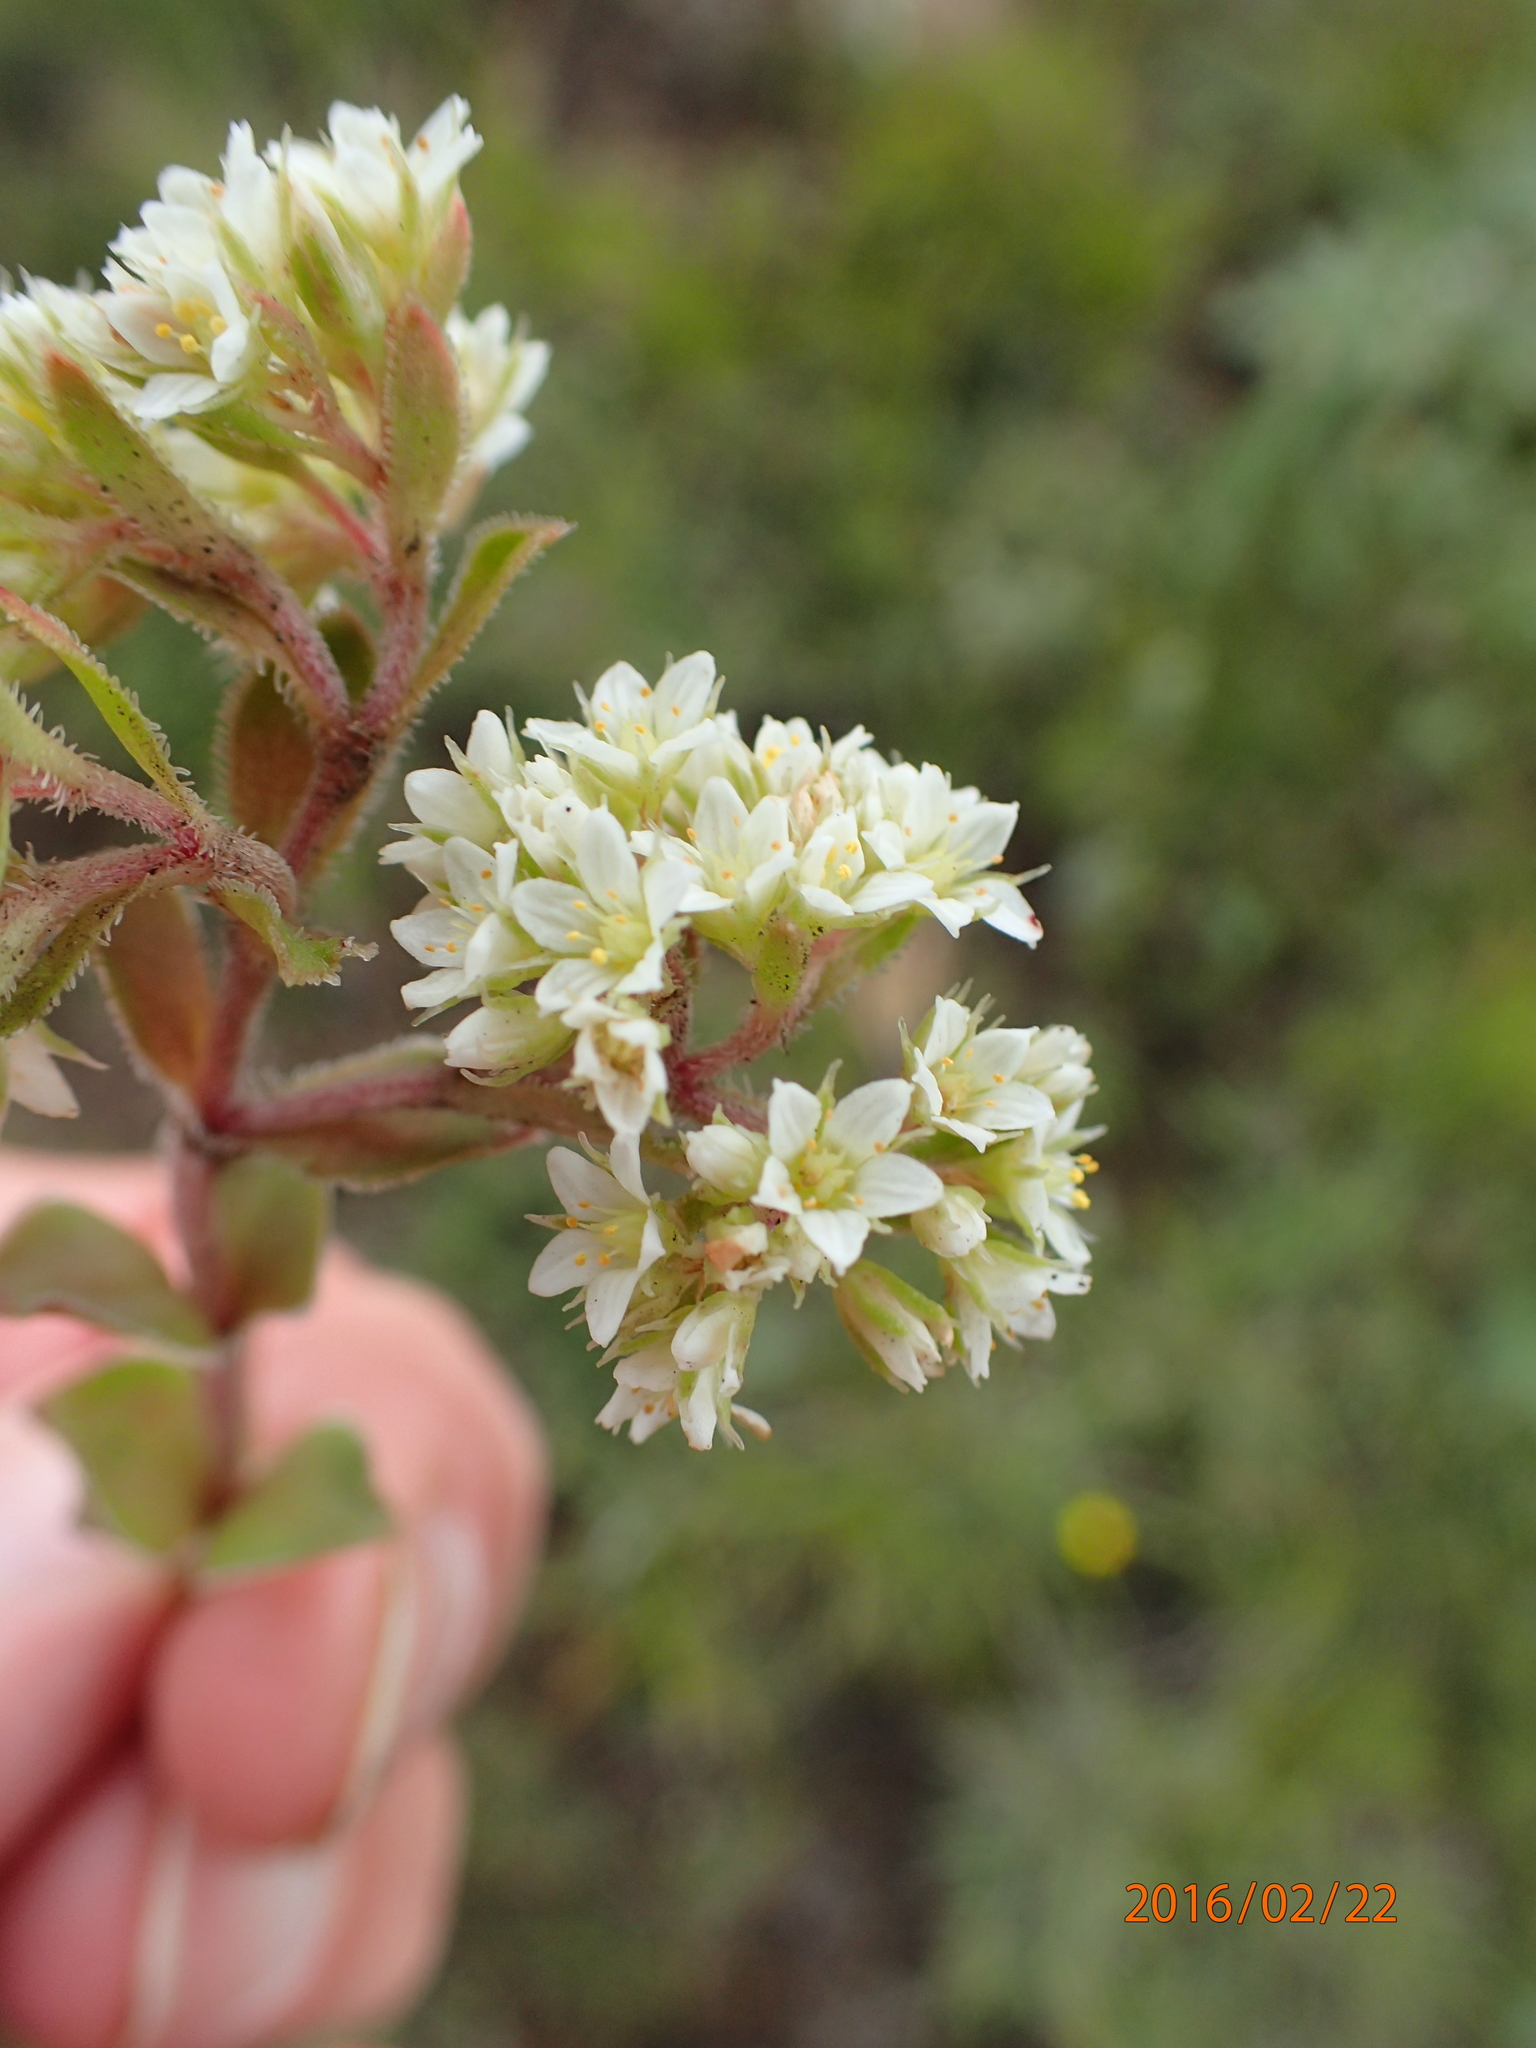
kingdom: Plantae
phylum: Tracheophyta
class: Magnoliopsida
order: Saxifragales
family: Crassulaceae
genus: Crassula
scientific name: Crassula setulosa
